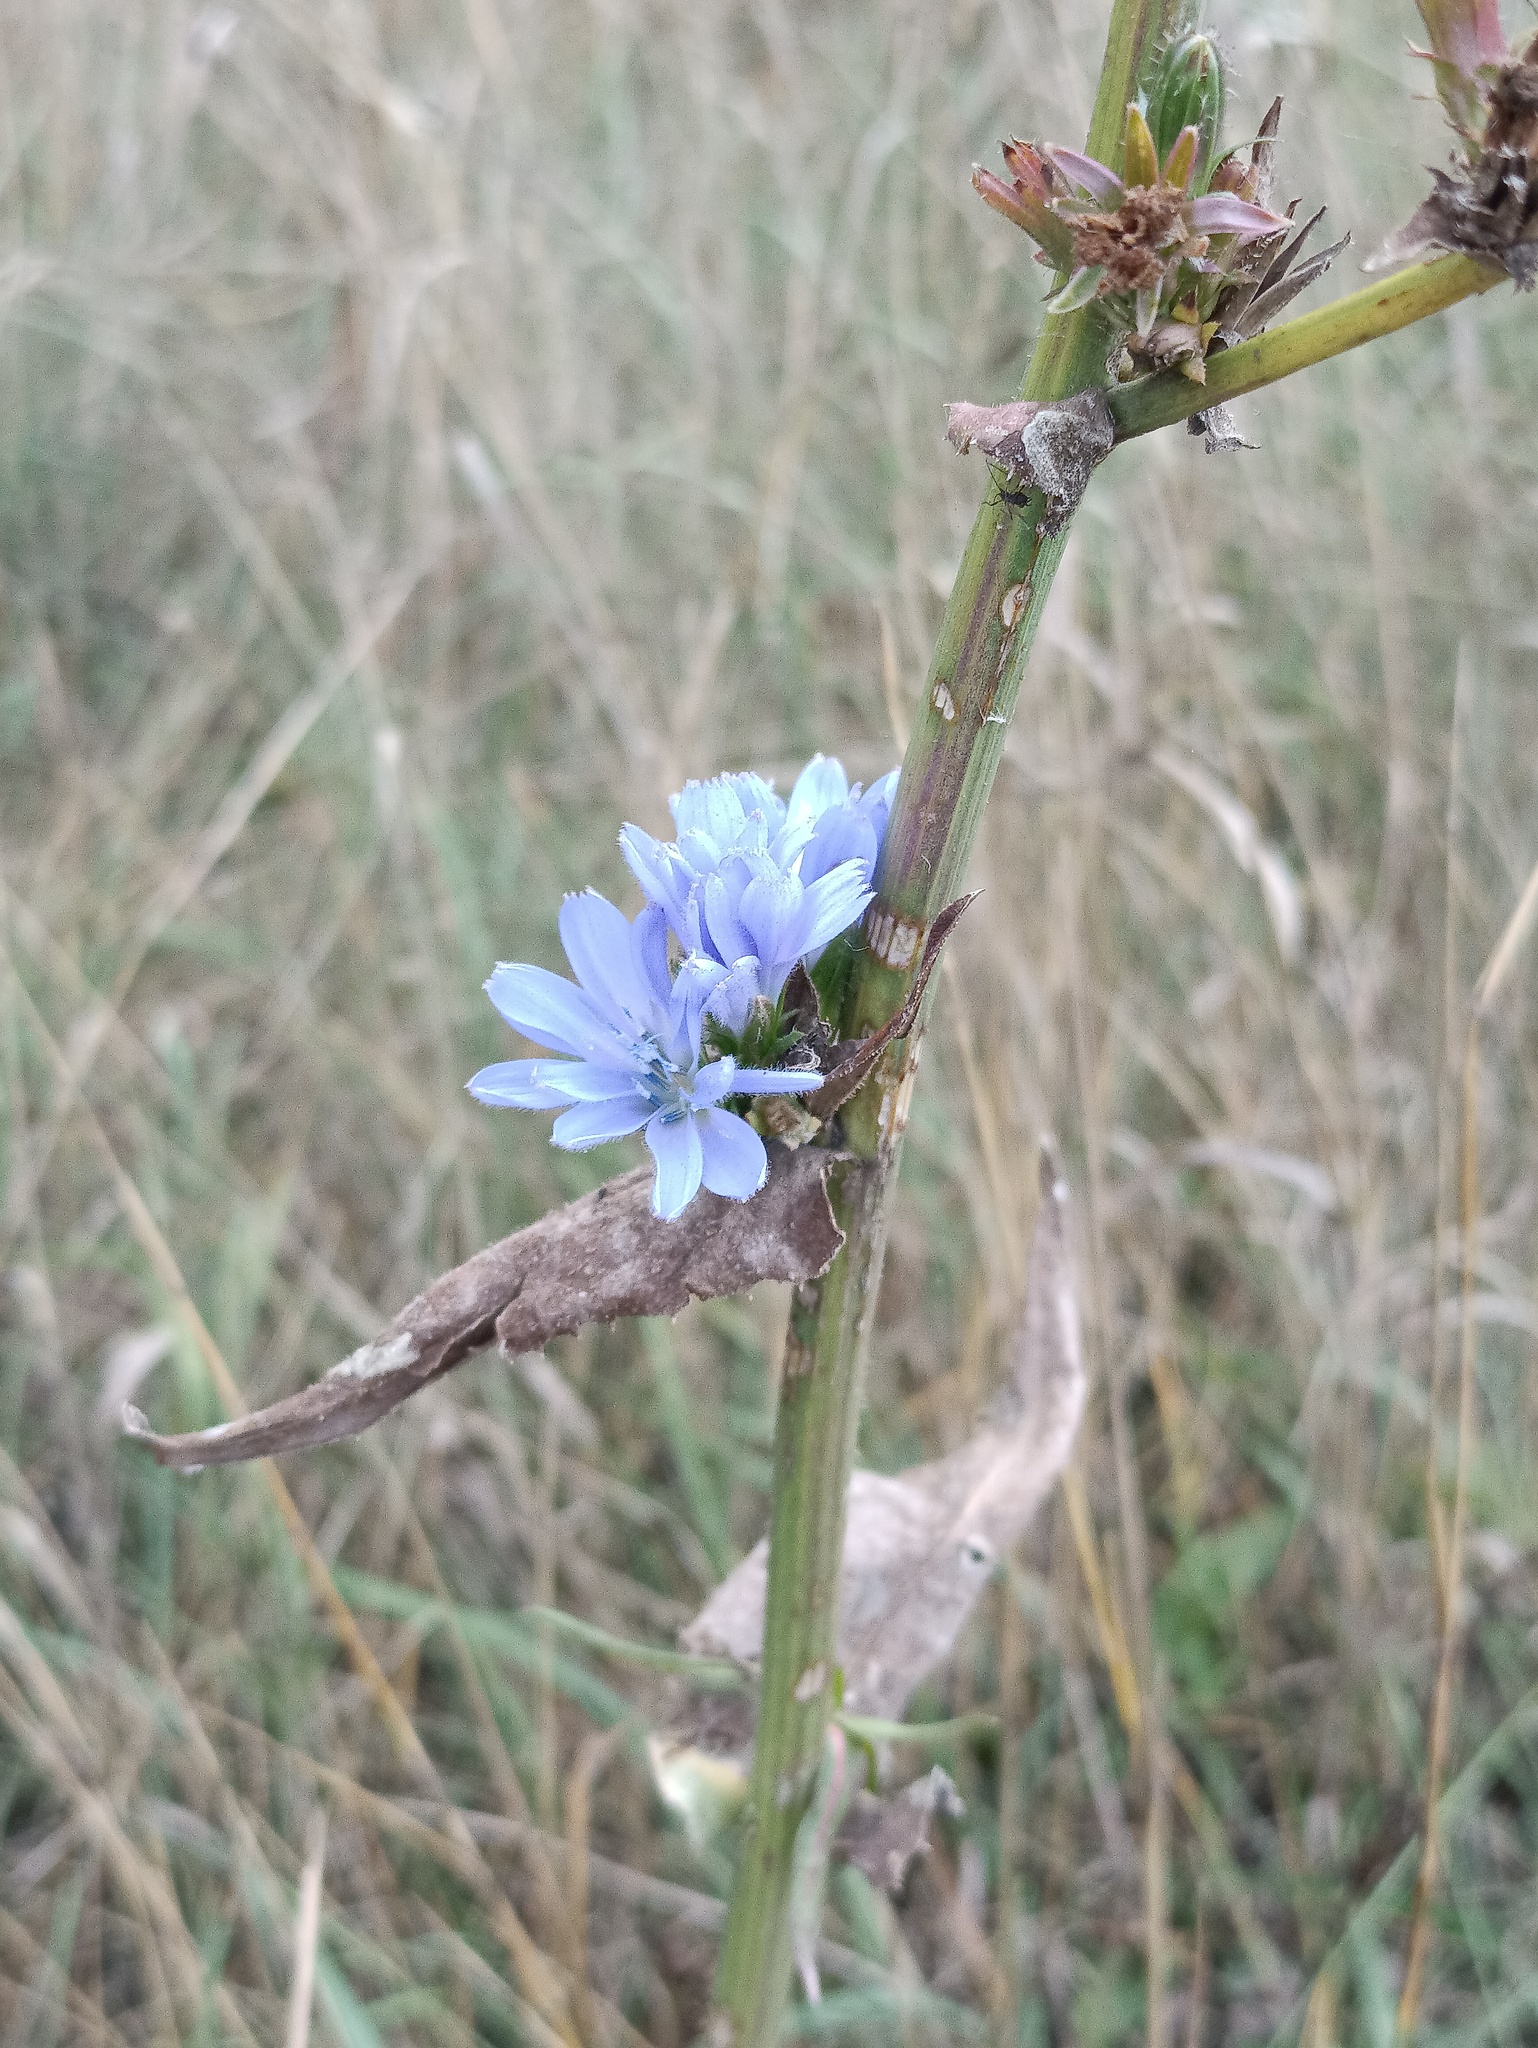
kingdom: Plantae
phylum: Tracheophyta
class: Magnoliopsida
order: Asterales
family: Asteraceae
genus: Cichorium
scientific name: Cichorium intybus
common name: Chicory
